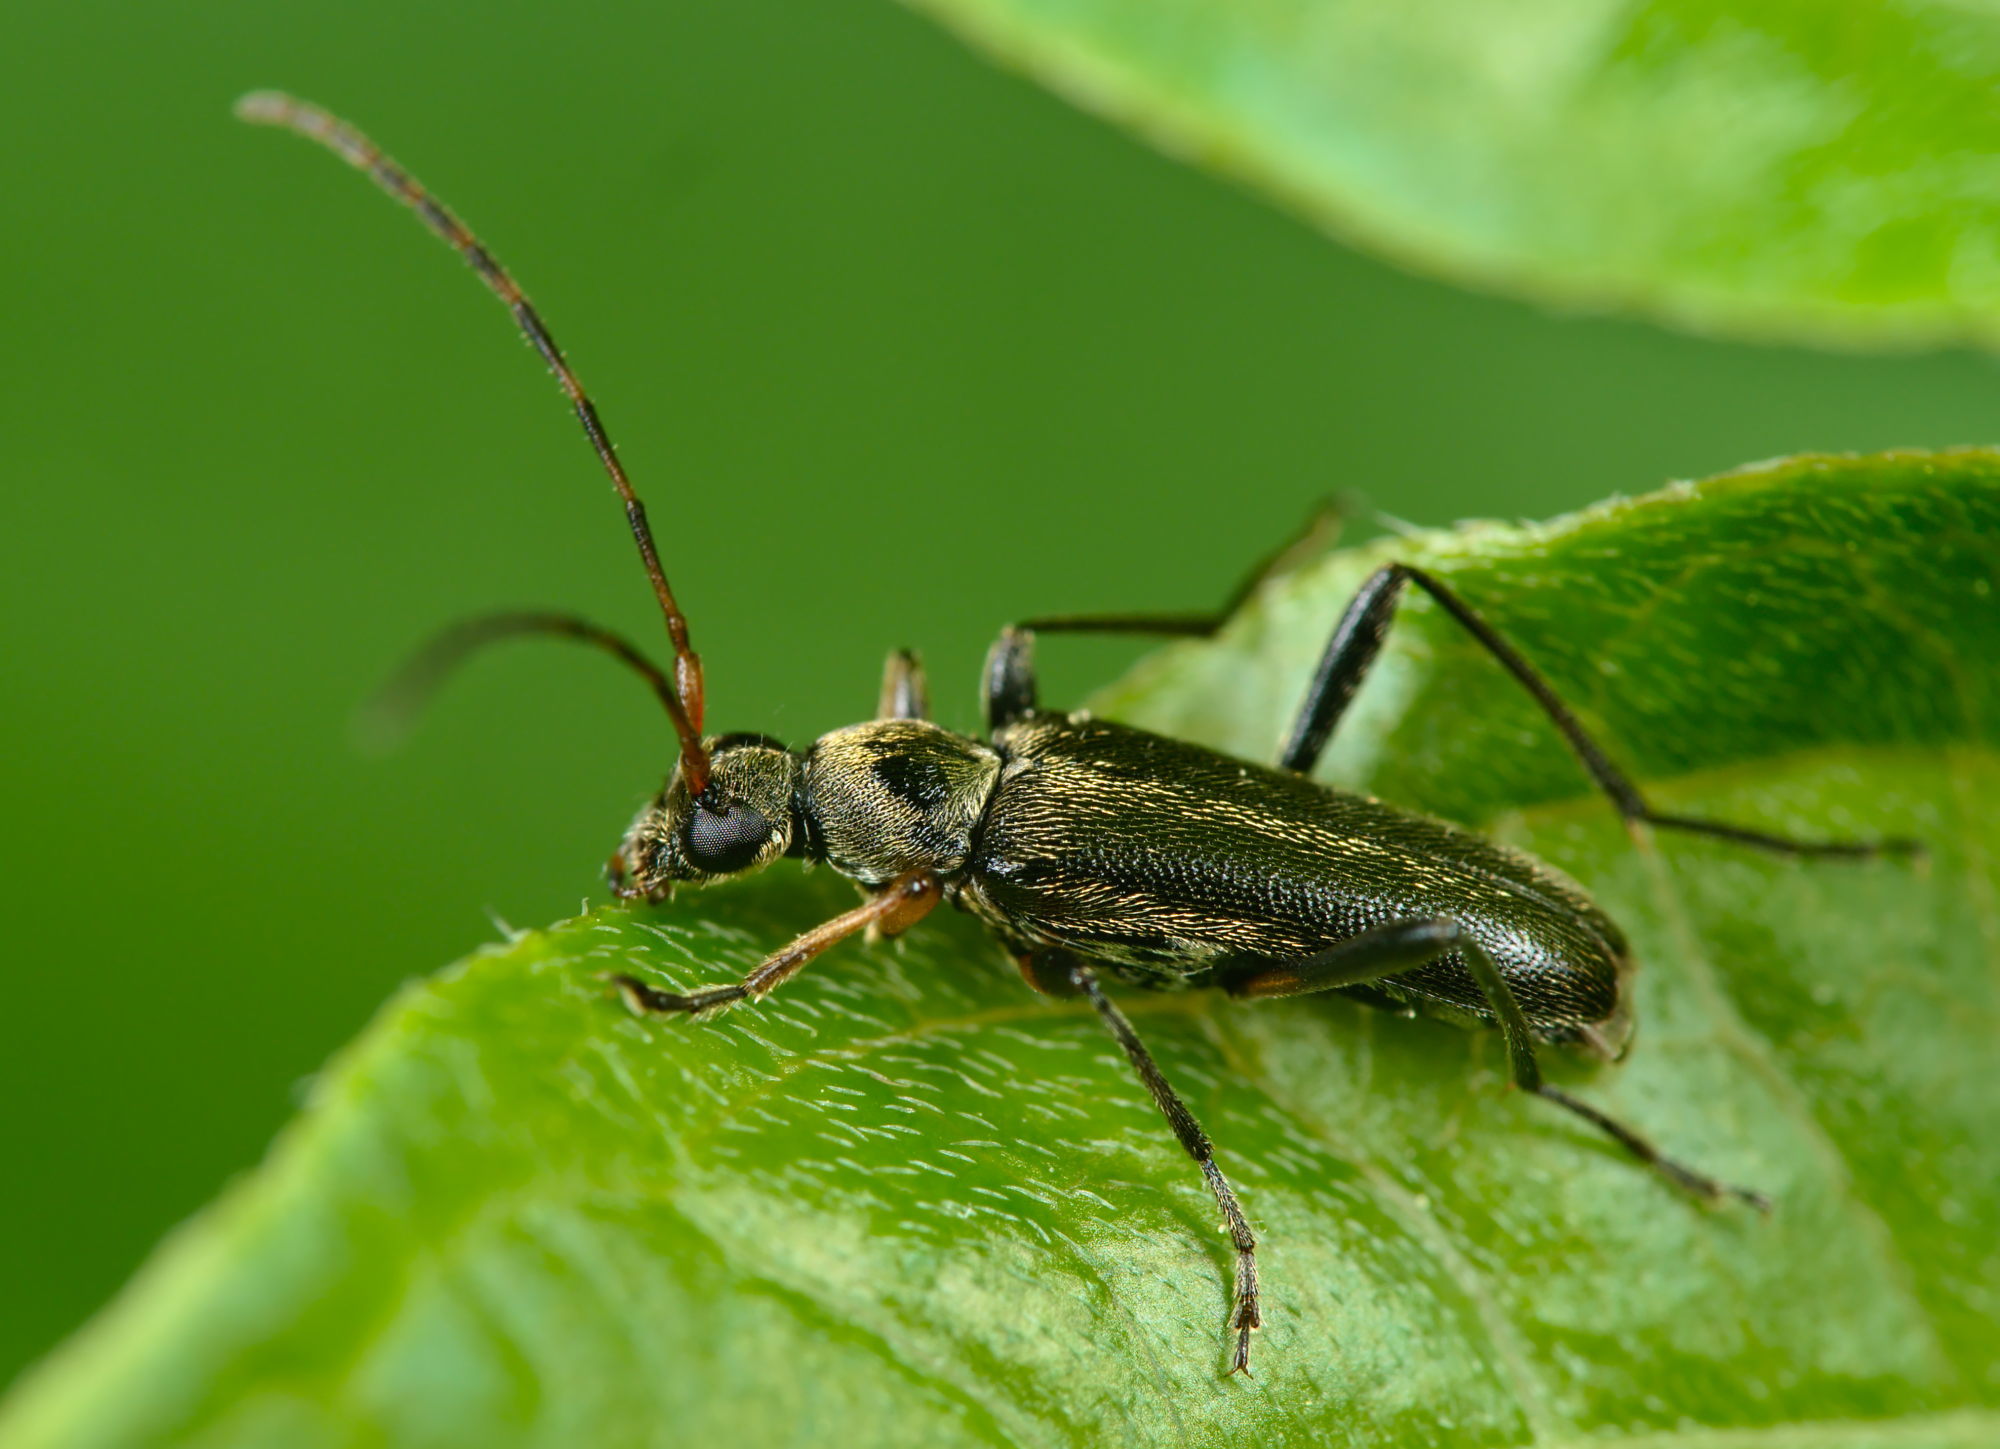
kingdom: Animalia
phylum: Arthropoda
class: Insecta
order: Coleoptera
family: Cerambycidae
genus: Grammoptera
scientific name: Grammoptera ruficornis
